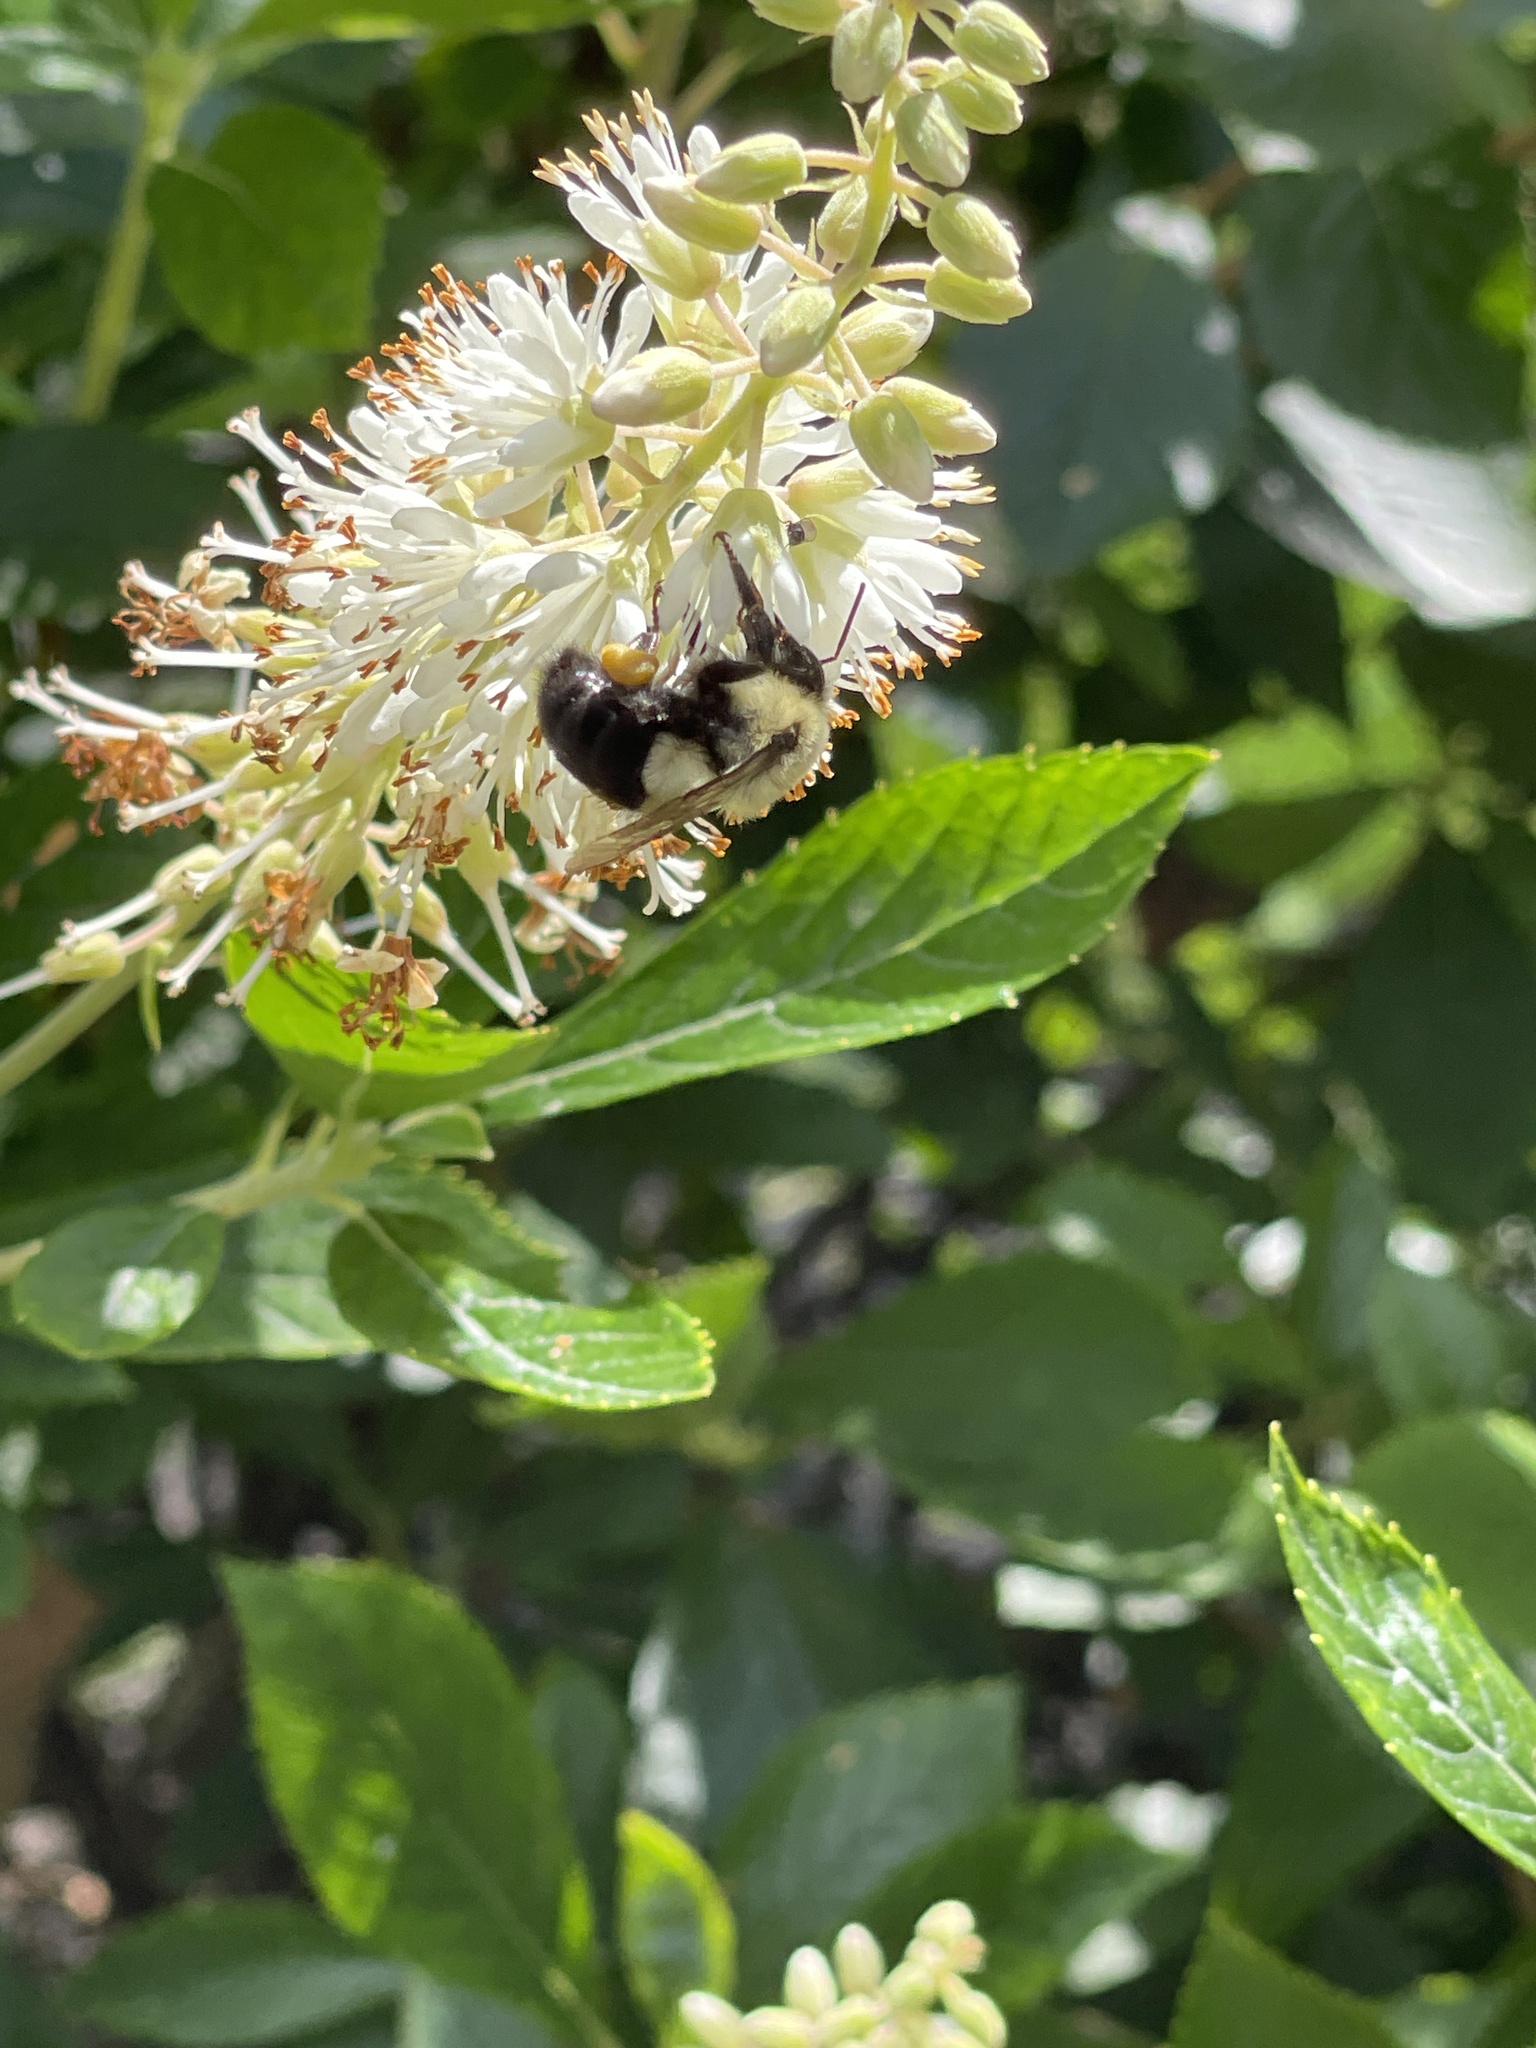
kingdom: Animalia
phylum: Arthropoda
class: Insecta
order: Hymenoptera
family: Apidae
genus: Bombus
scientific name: Bombus impatiens
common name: Common eastern bumble bee
